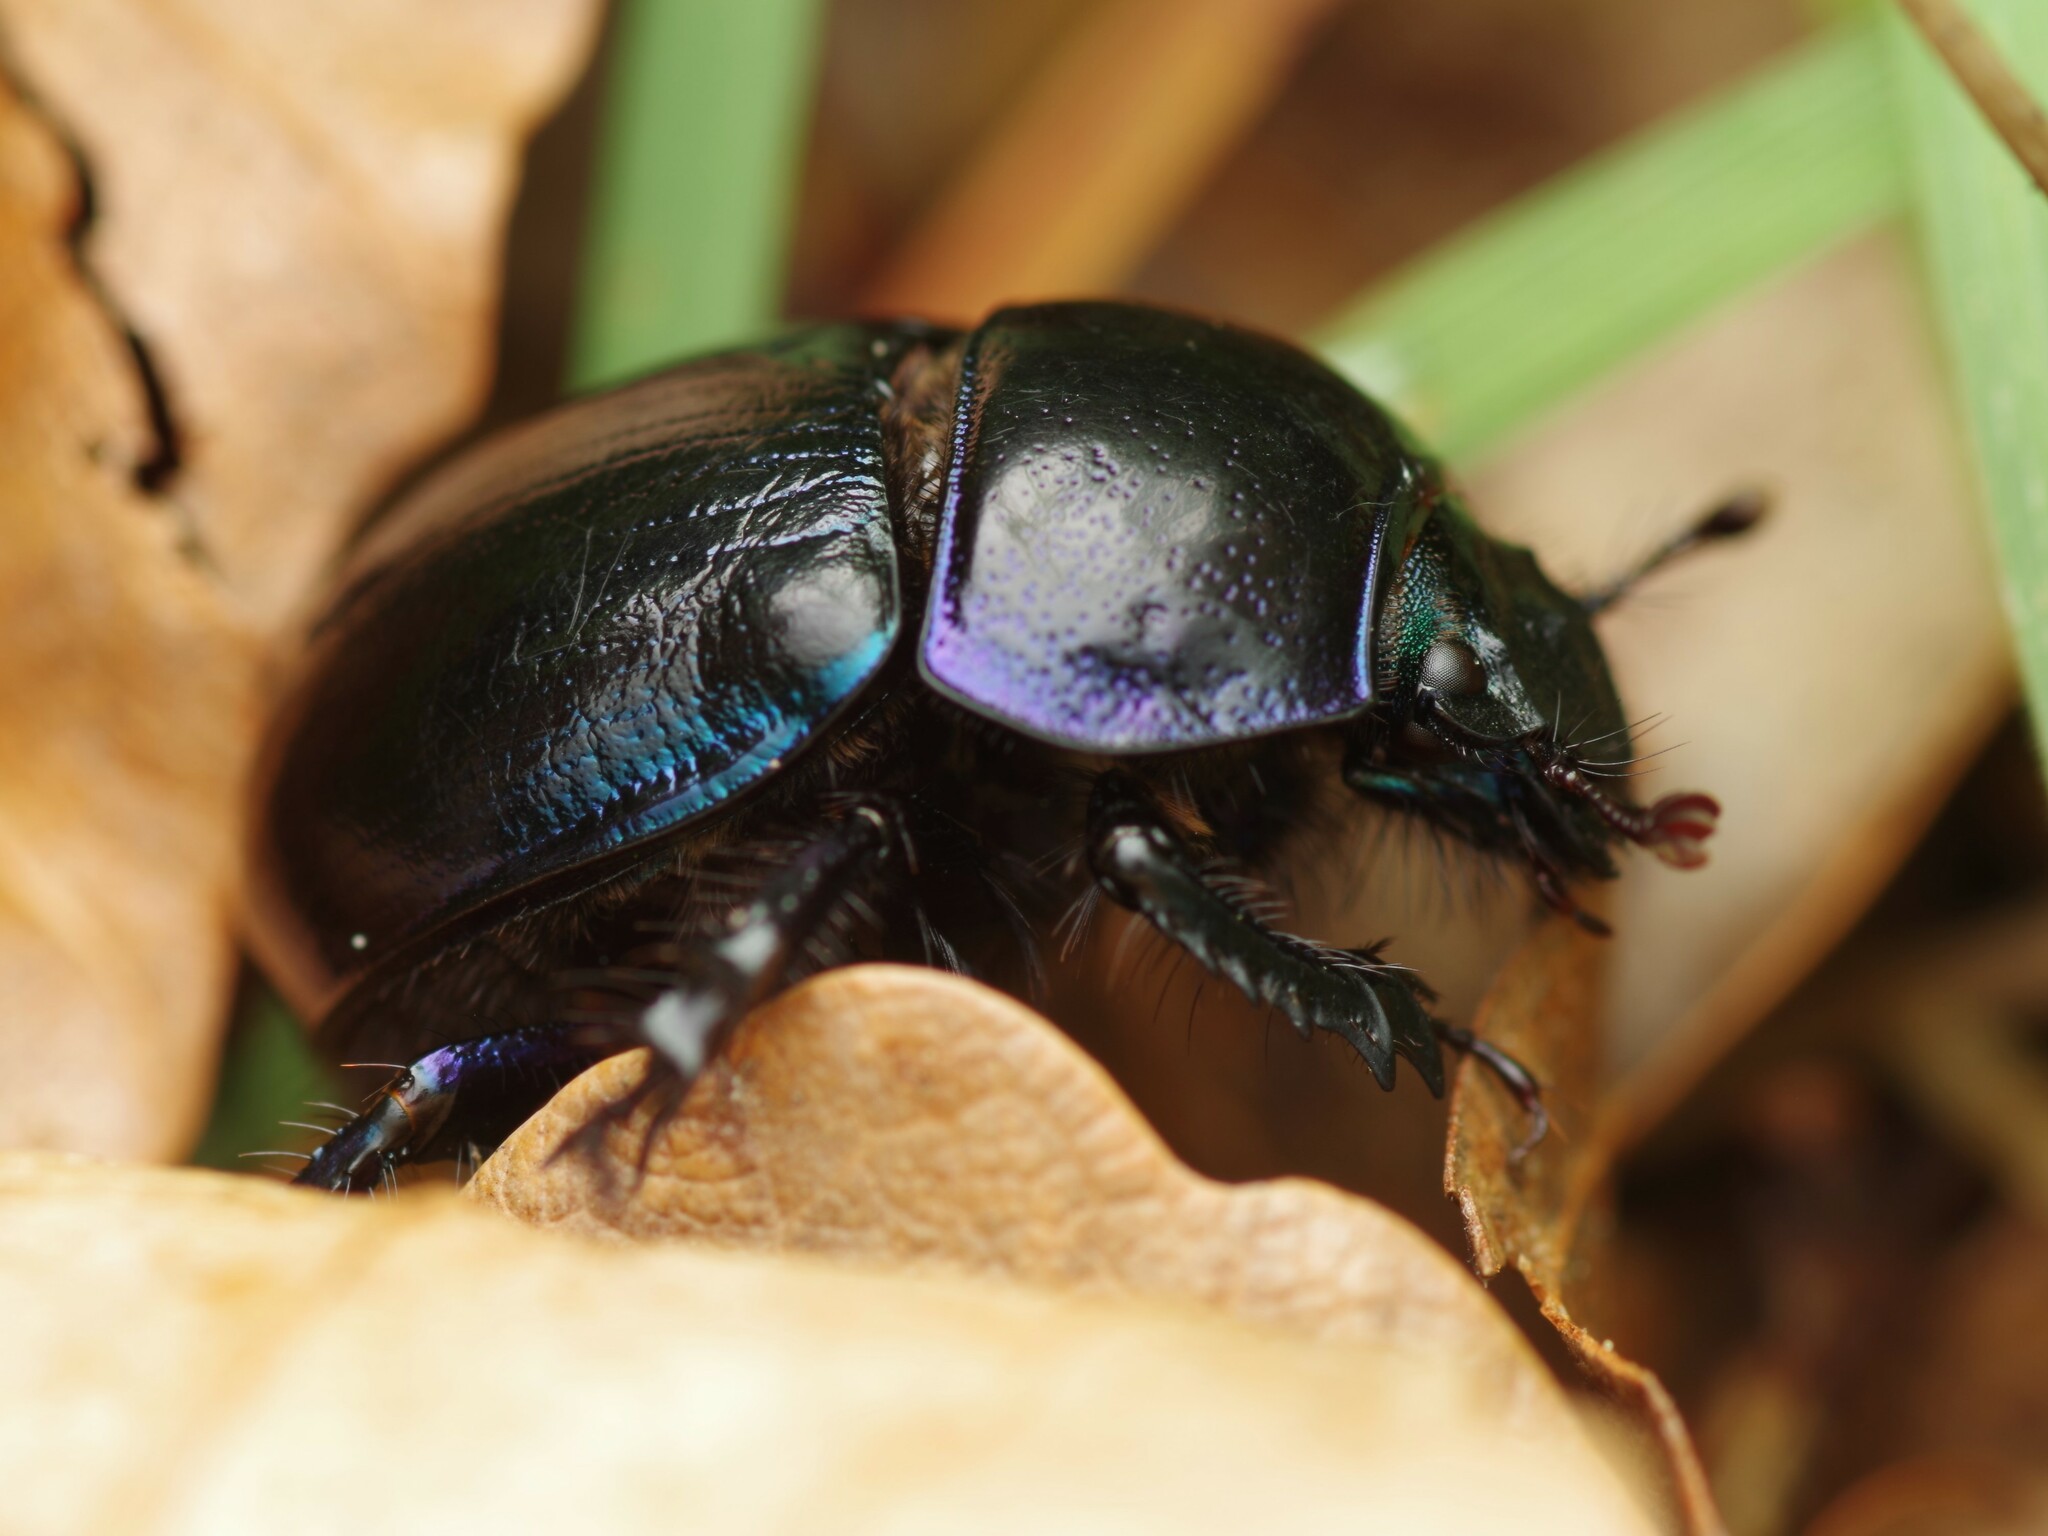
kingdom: Animalia
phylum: Arthropoda
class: Insecta
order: Coleoptera
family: Geotrupidae
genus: Anoplotrupes
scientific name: Anoplotrupes stercorosus
